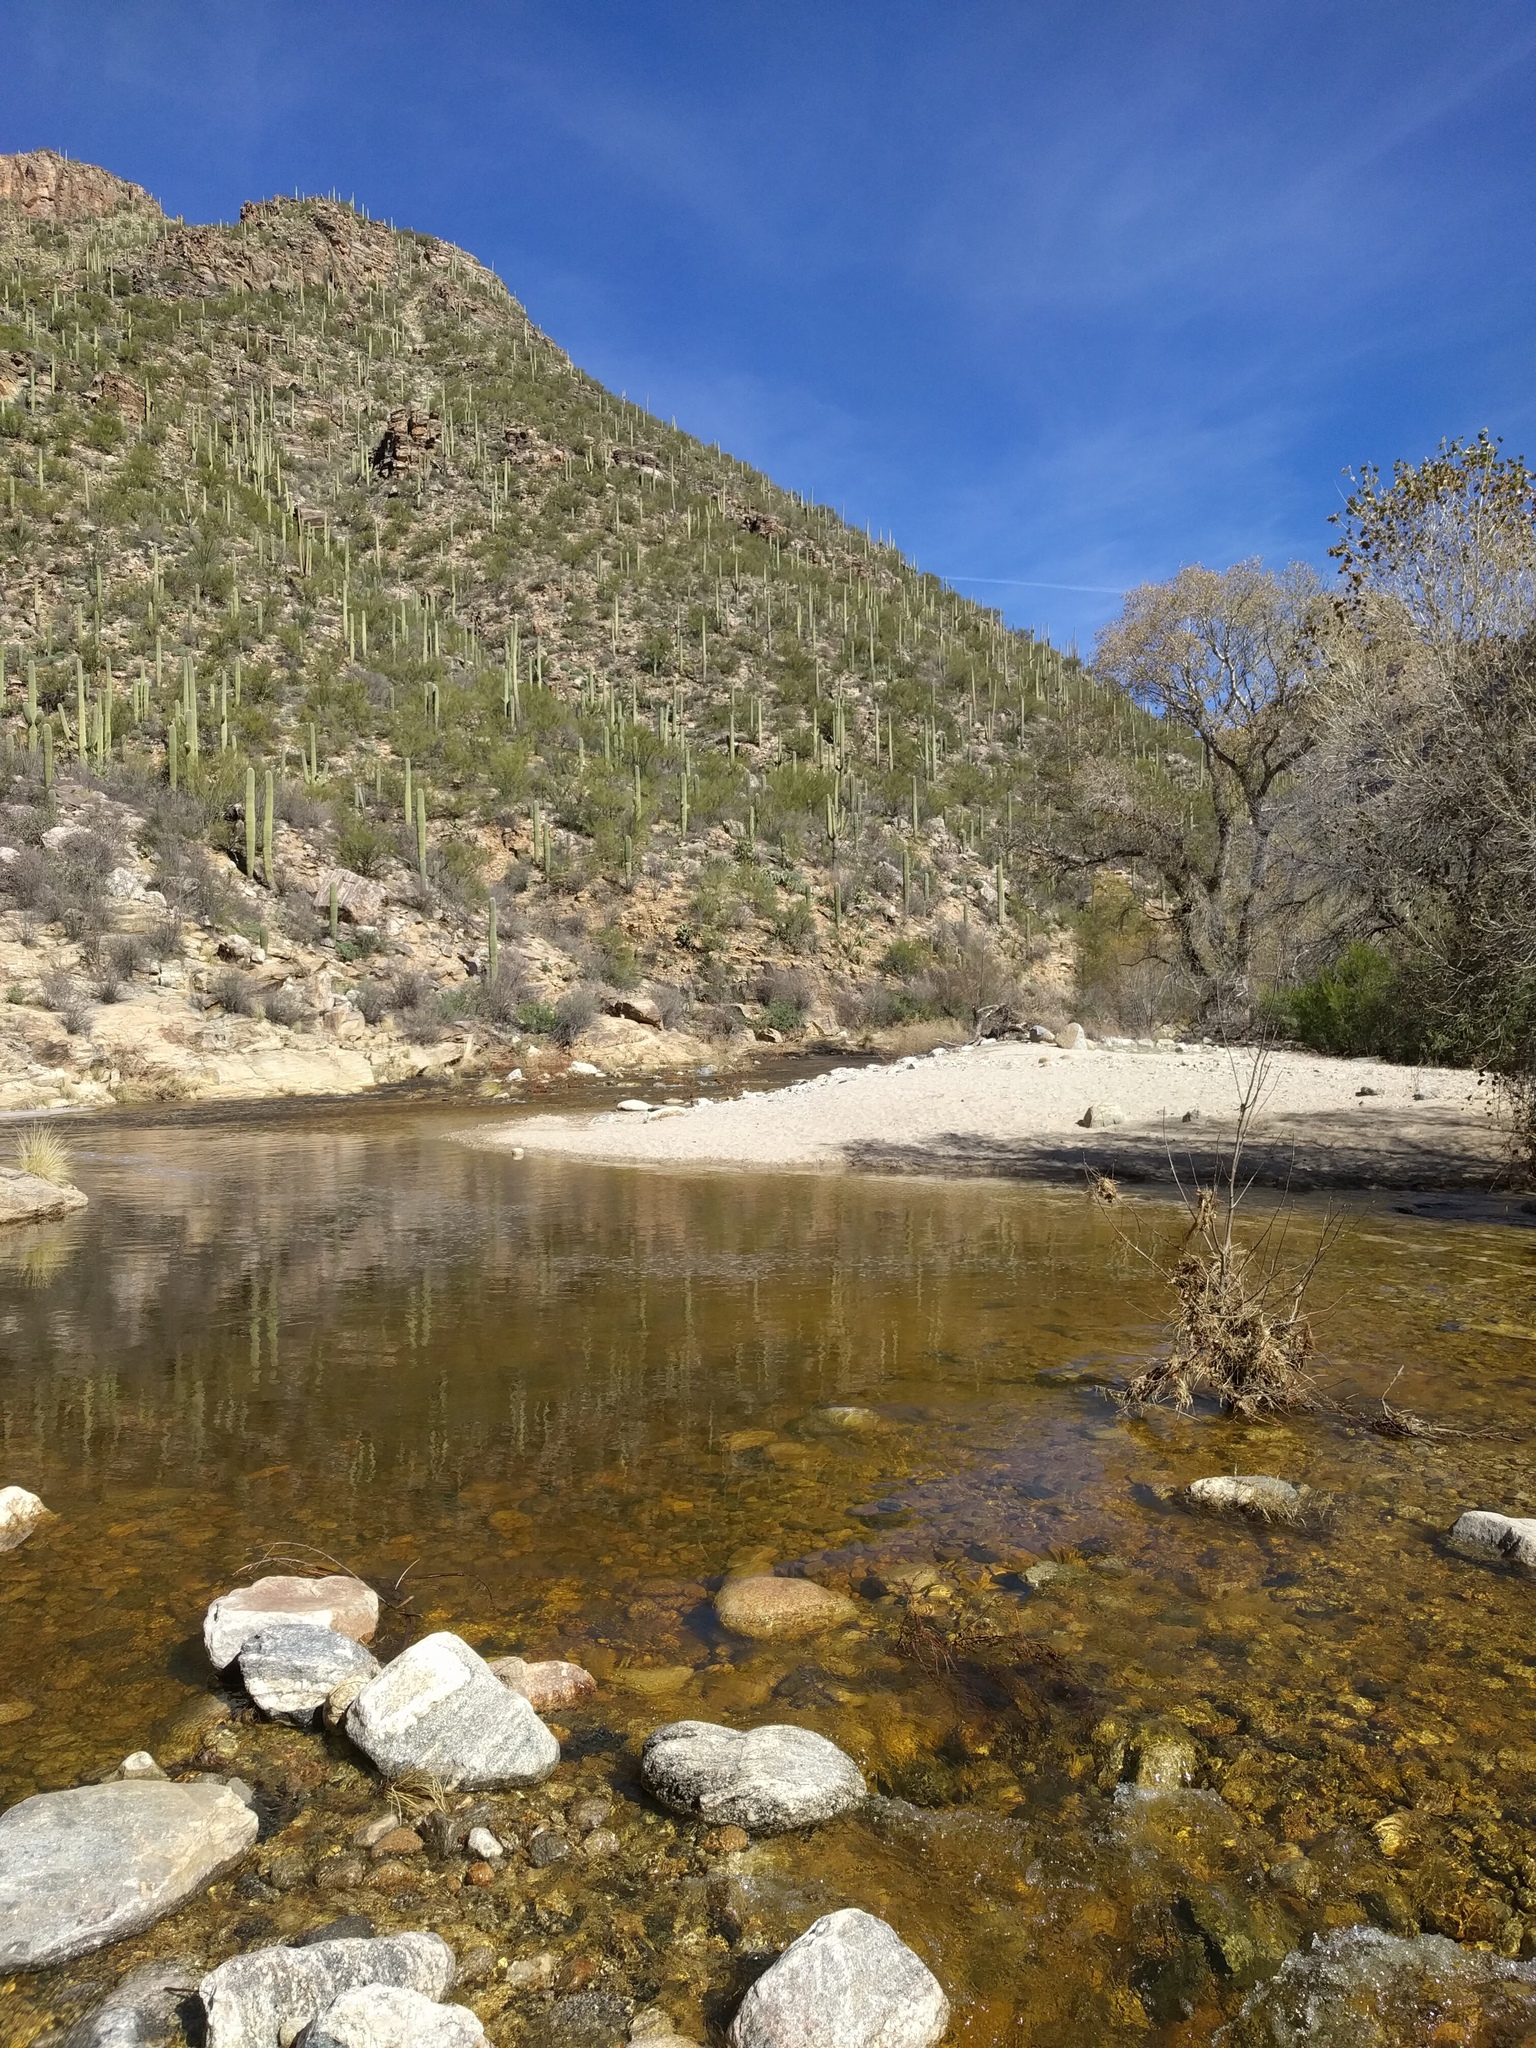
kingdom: Plantae
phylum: Tracheophyta
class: Magnoliopsida
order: Caryophyllales
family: Cactaceae
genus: Carnegiea
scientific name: Carnegiea gigantea
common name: Saguaro
